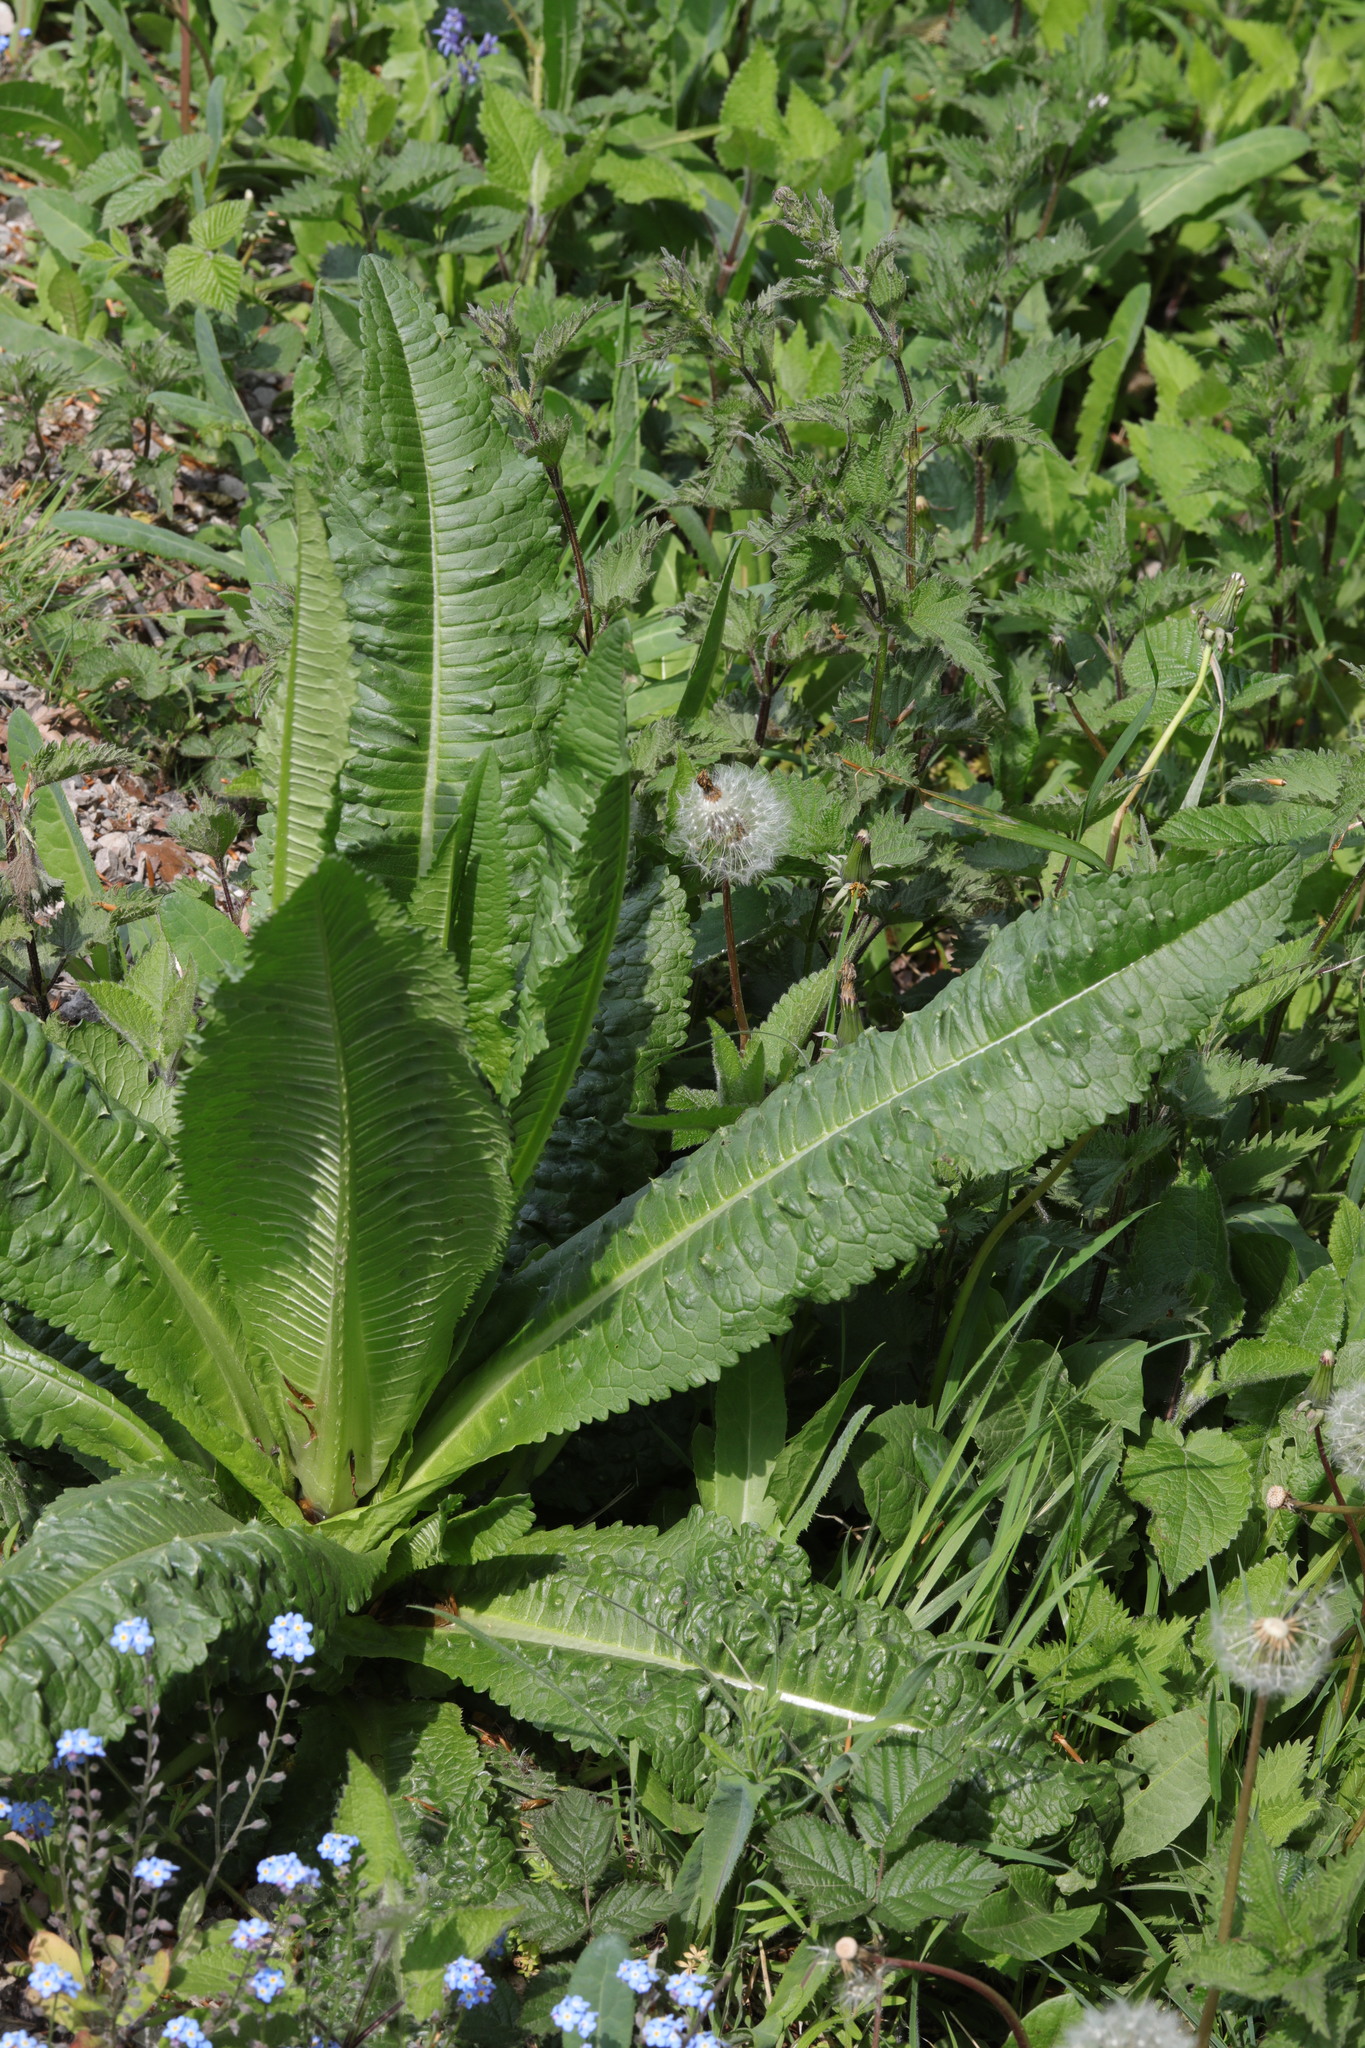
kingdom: Plantae
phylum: Tracheophyta
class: Magnoliopsida
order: Dipsacales
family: Caprifoliaceae
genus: Dipsacus
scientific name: Dipsacus fullonum
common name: Teasel
